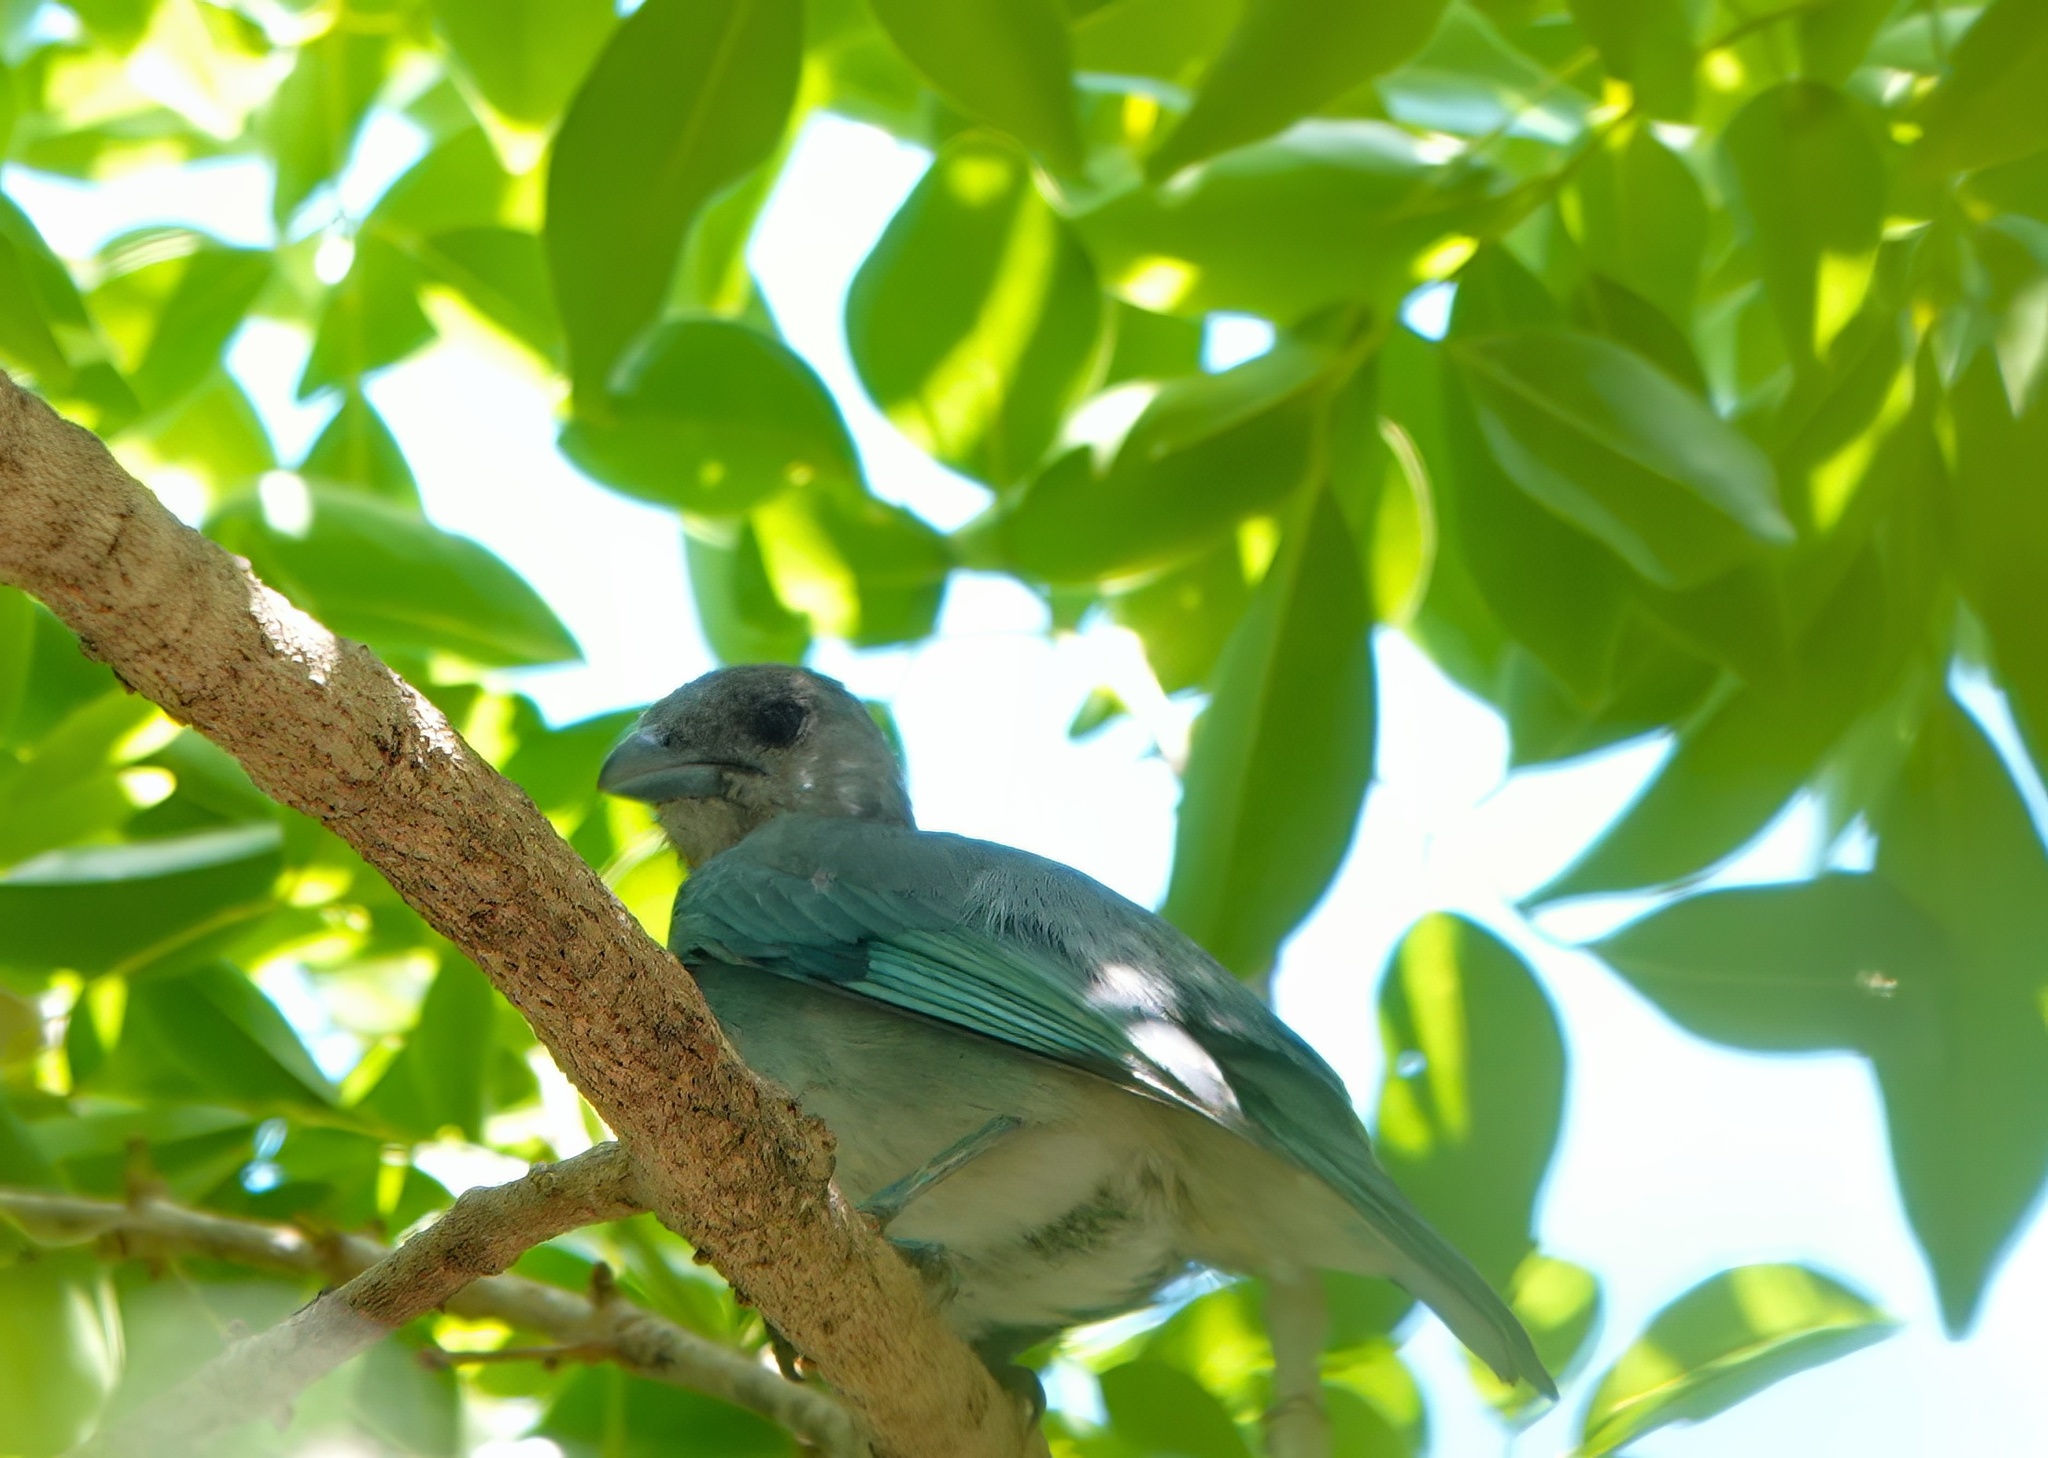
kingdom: Animalia
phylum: Chordata
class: Aves
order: Passeriformes
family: Thraupidae
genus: Thraupis
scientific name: Thraupis glaucocolpa
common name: Glaucous tanager
